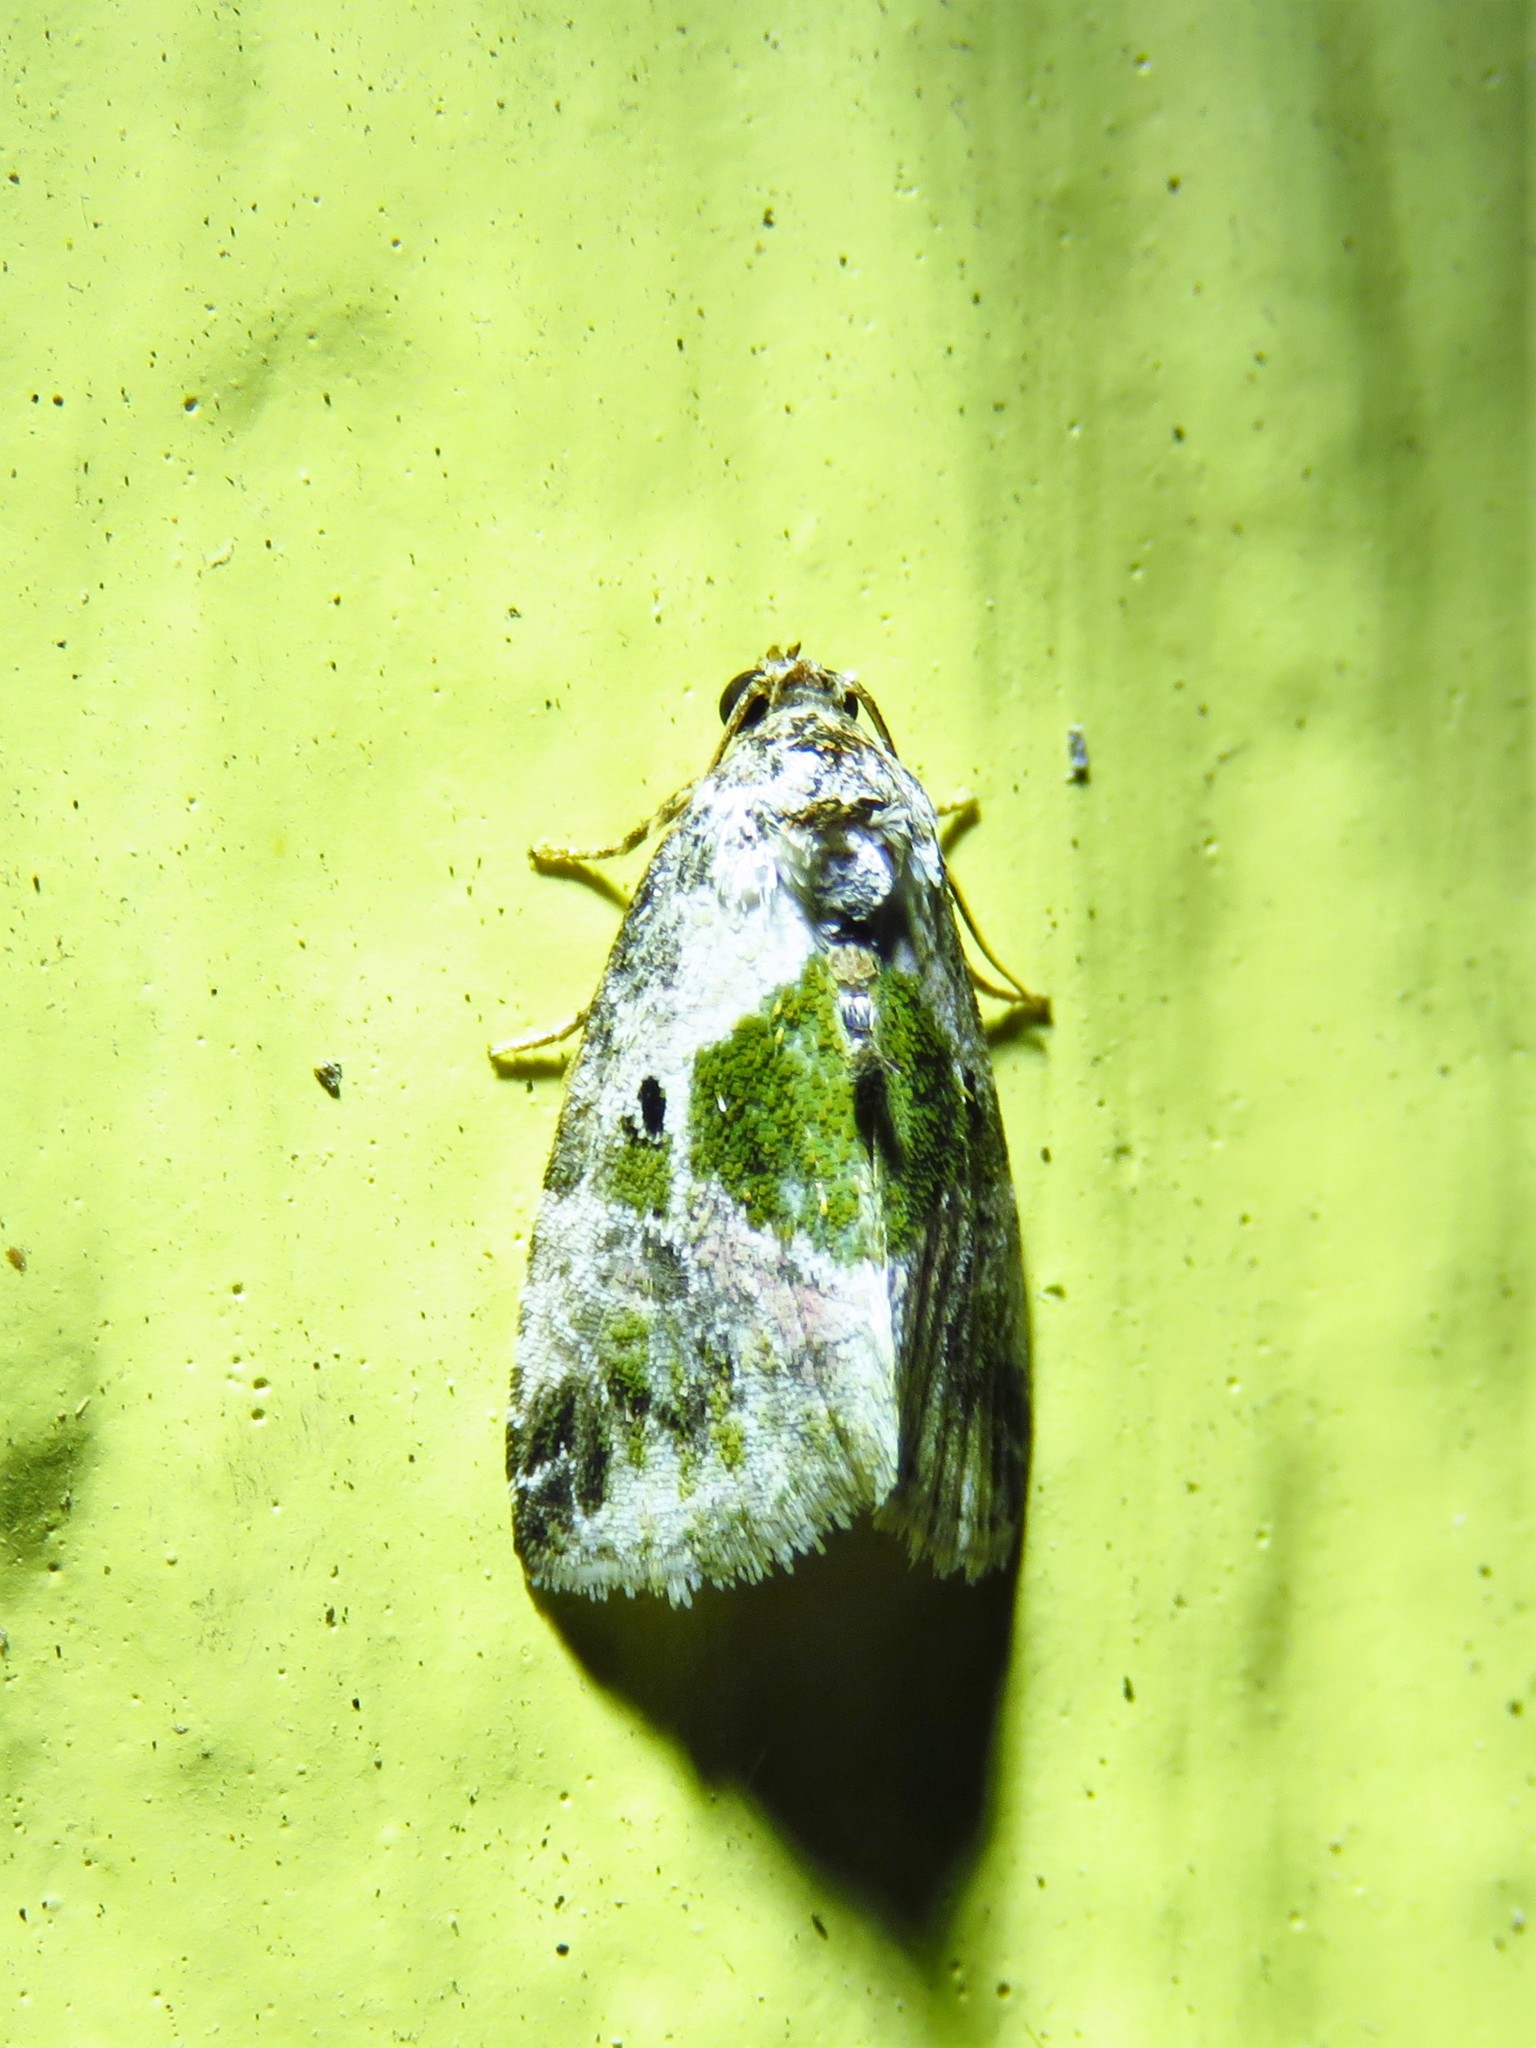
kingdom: Animalia
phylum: Arthropoda
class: Insecta
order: Lepidoptera
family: Noctuidae
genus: Maliattha
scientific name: Maliattha synochitis
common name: Black-dotted glyph
